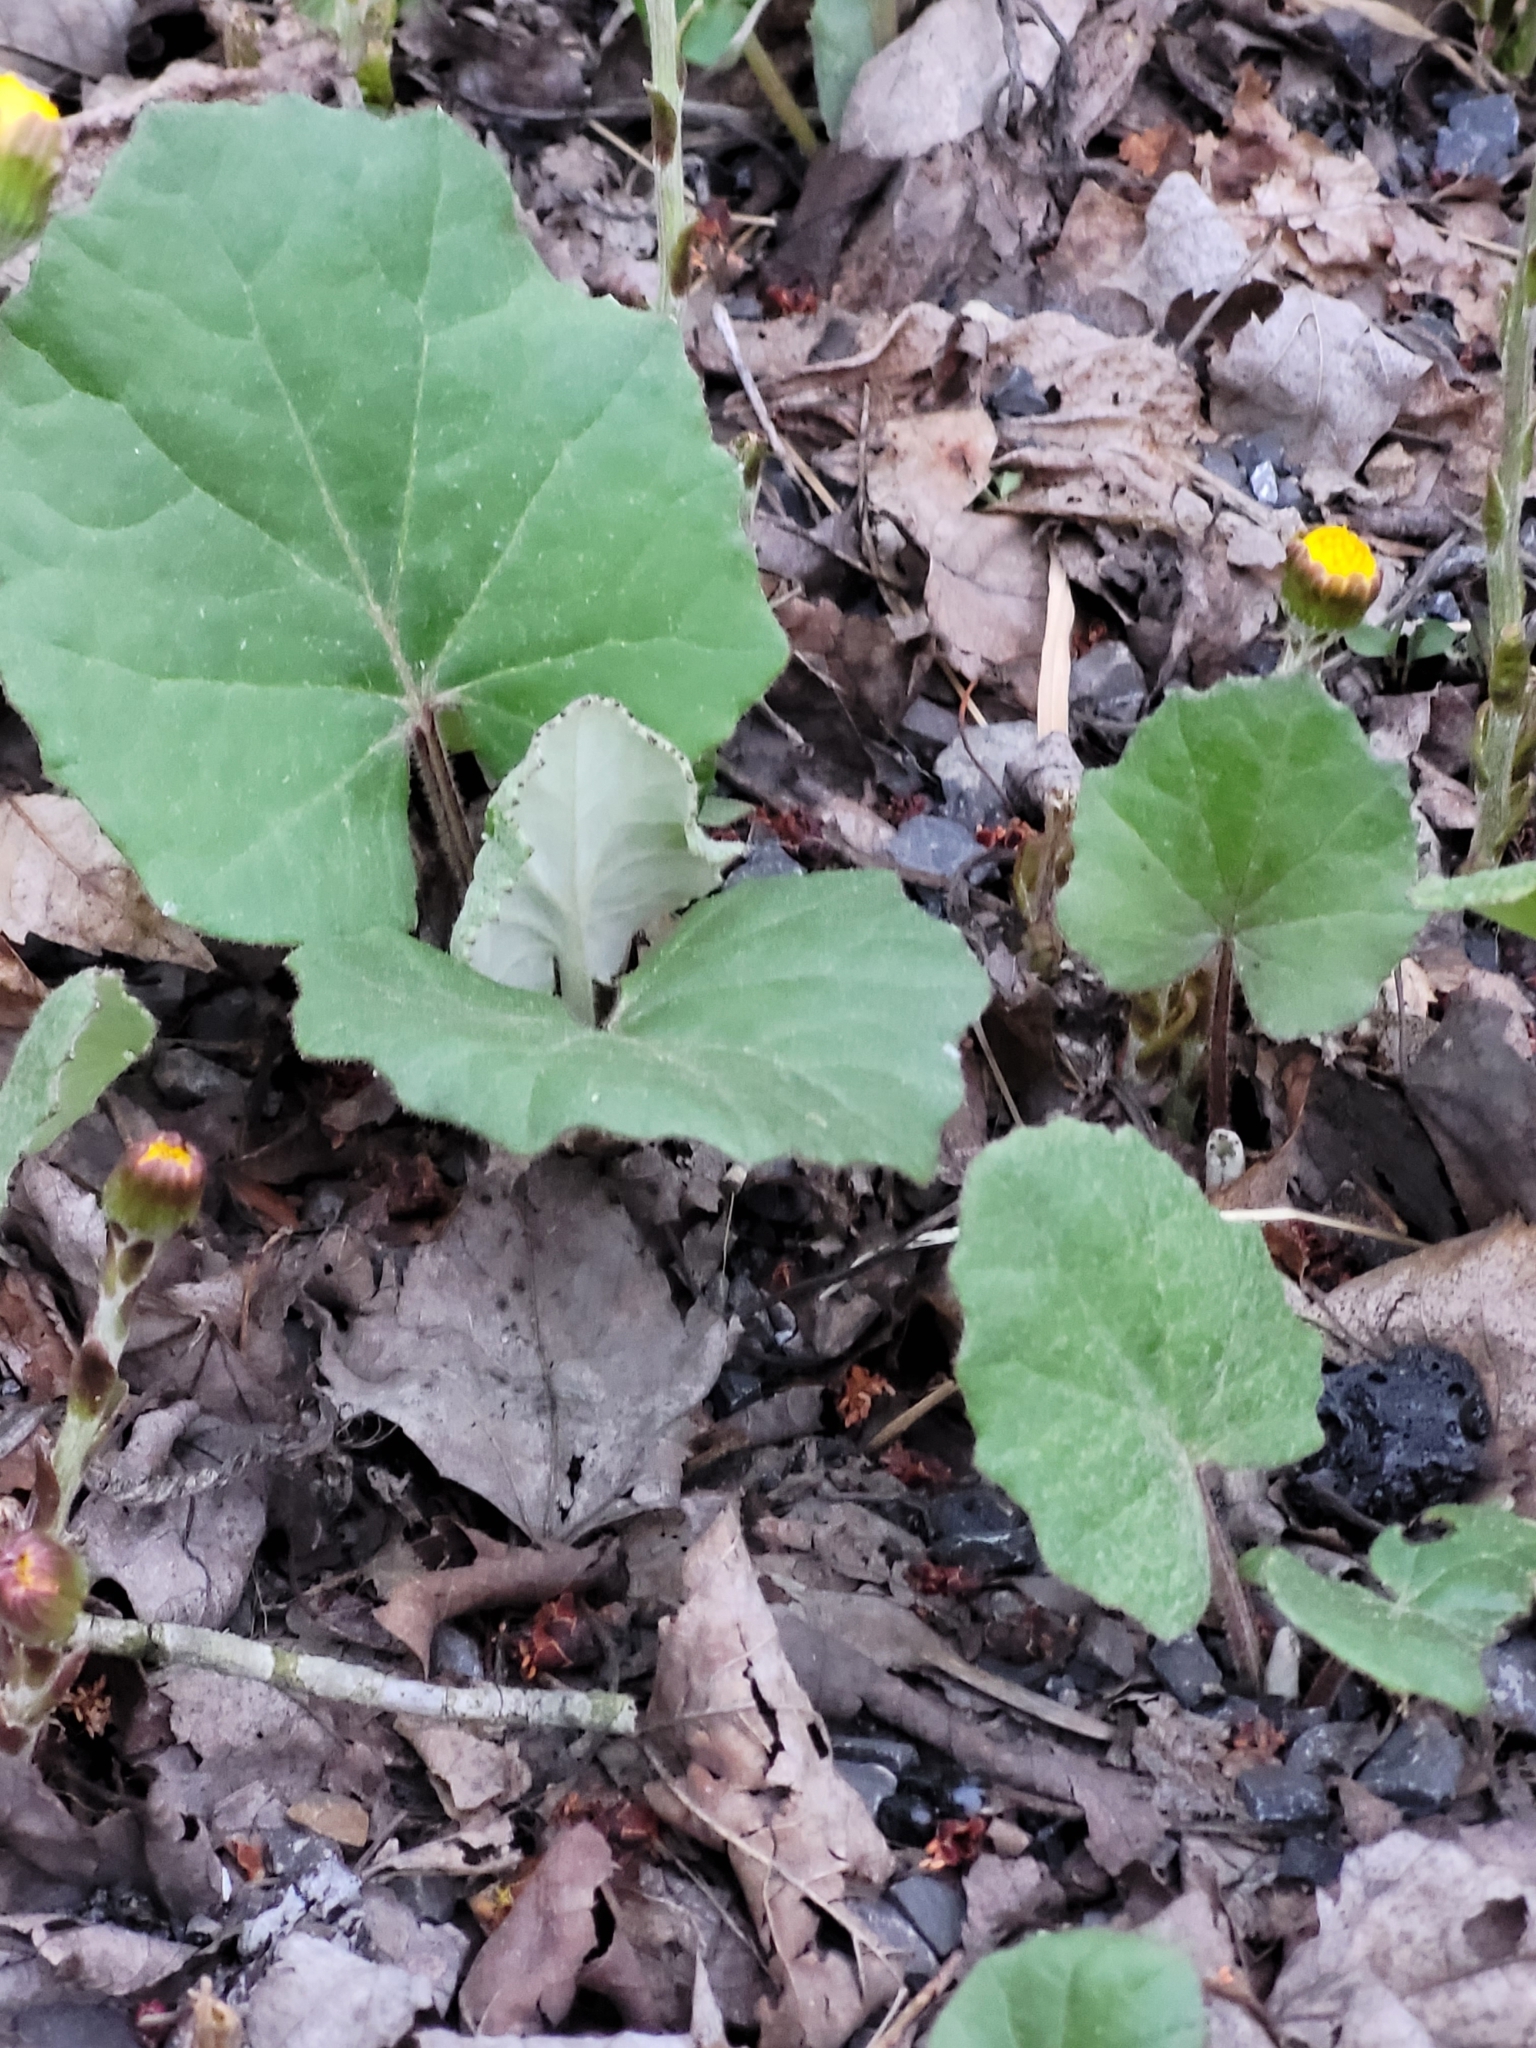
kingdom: Plantae
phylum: Tracheophyta
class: Magnoliopsida
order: Asterales
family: Asteraceae
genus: Tussilago
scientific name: Tussilago farfara
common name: Coltsfoot
